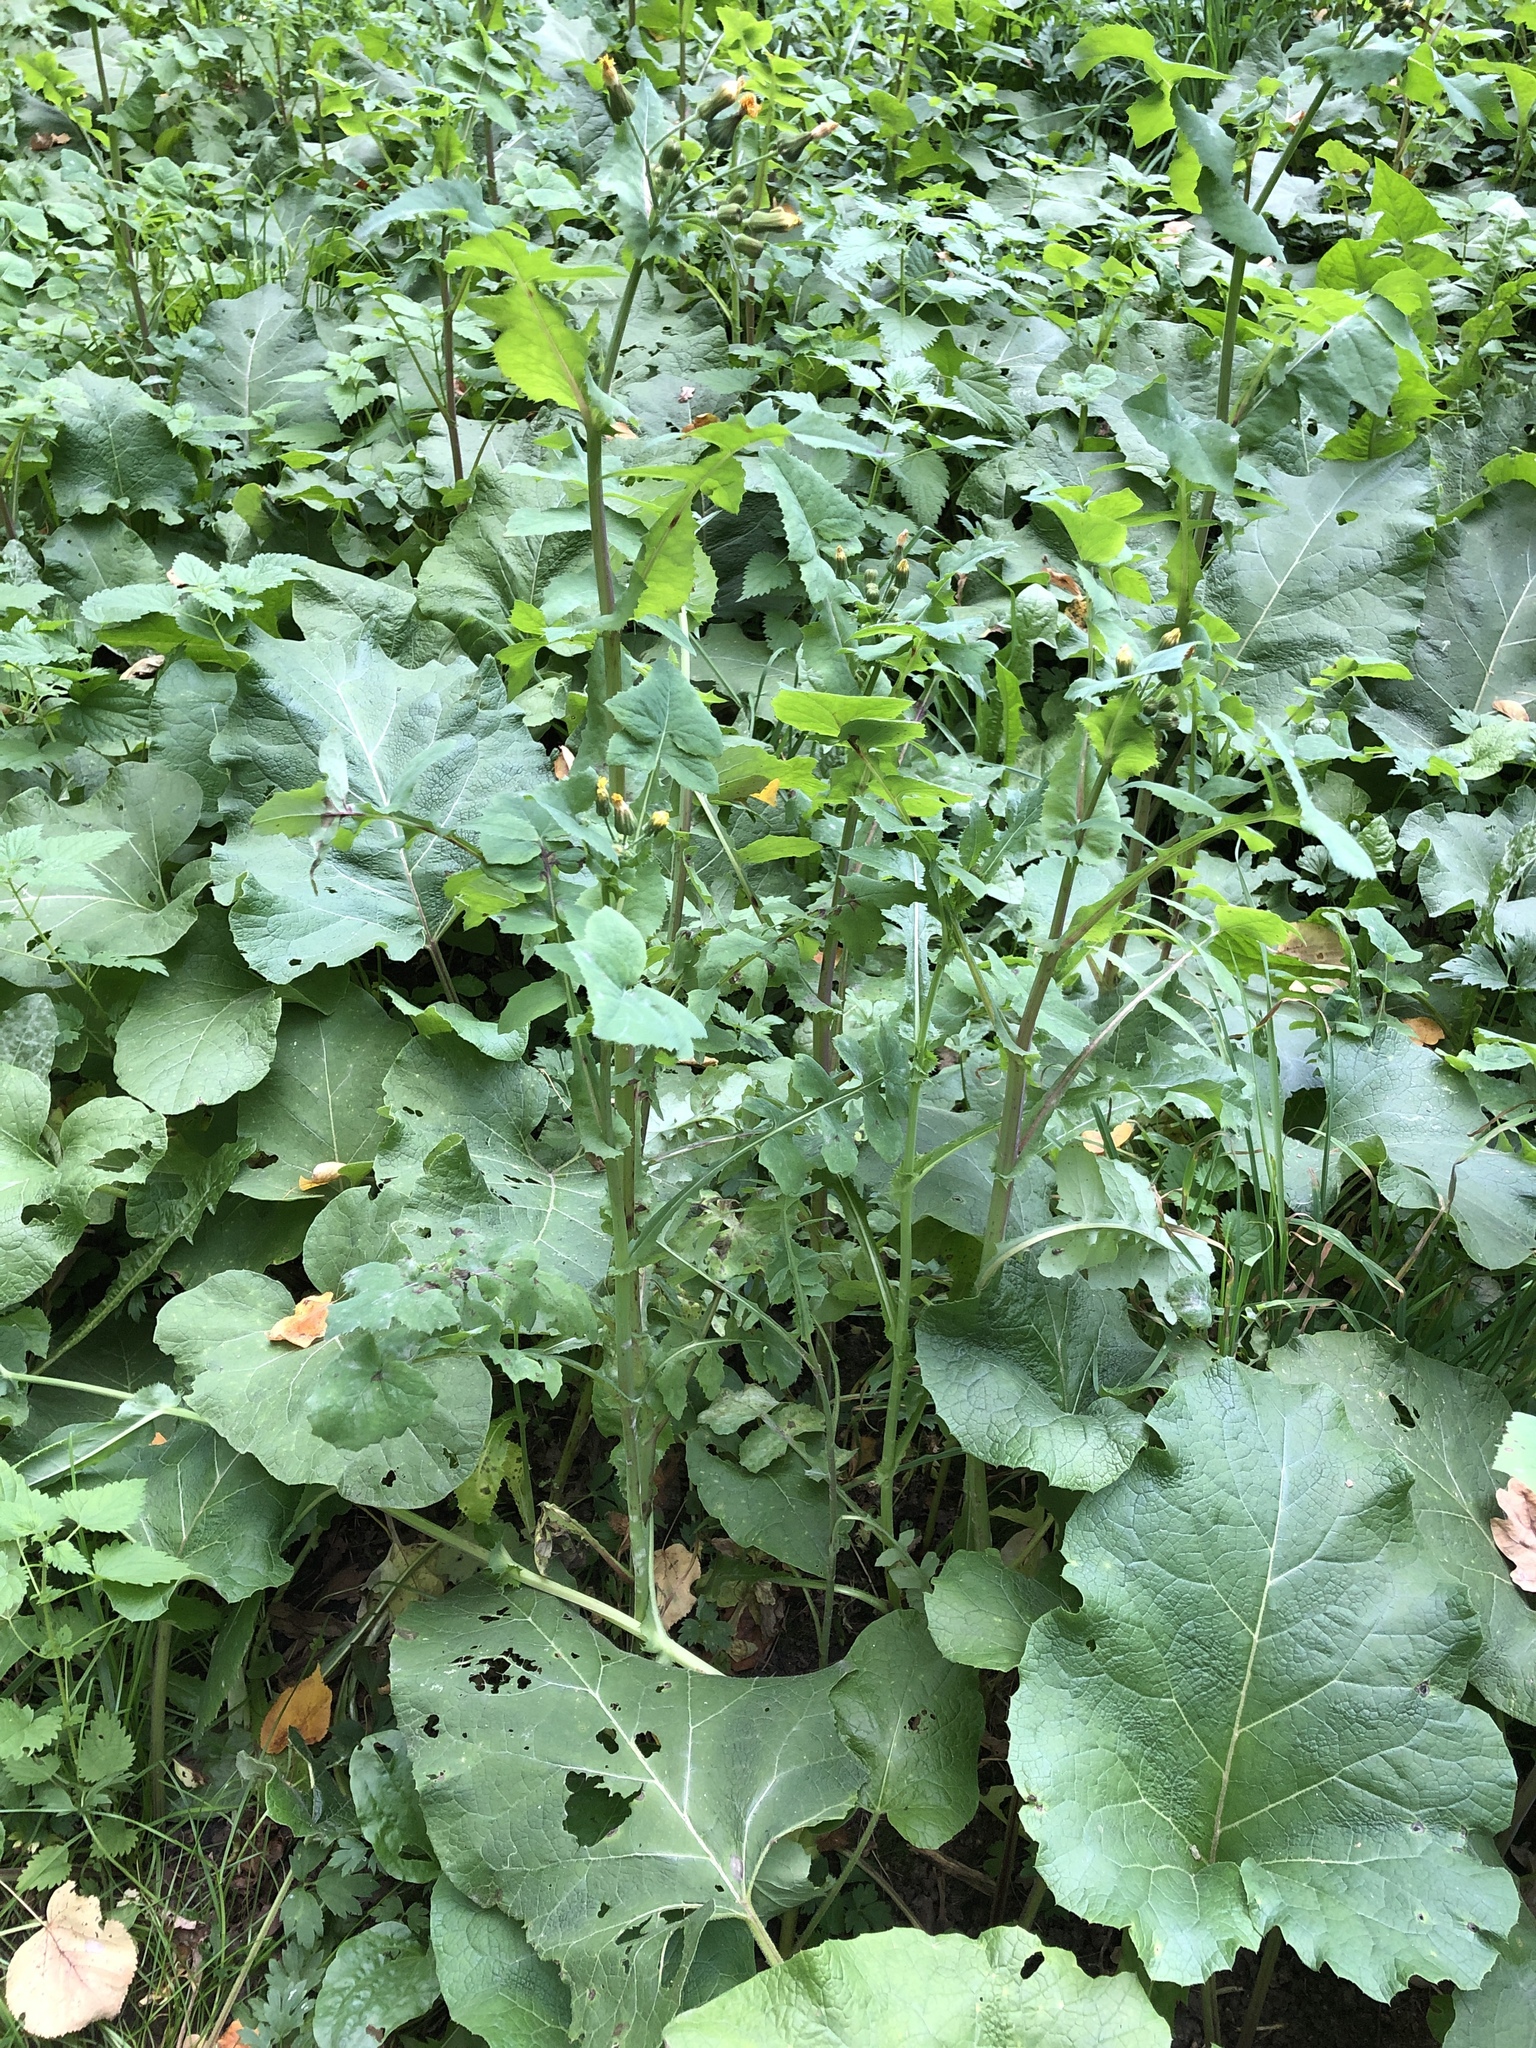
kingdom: Plantae
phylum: Tracheophyta
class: Magnoliopsida
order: Asterales
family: Asteraceae
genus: Sonchus
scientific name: Sonchus oleraceus
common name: Common sowthistle
